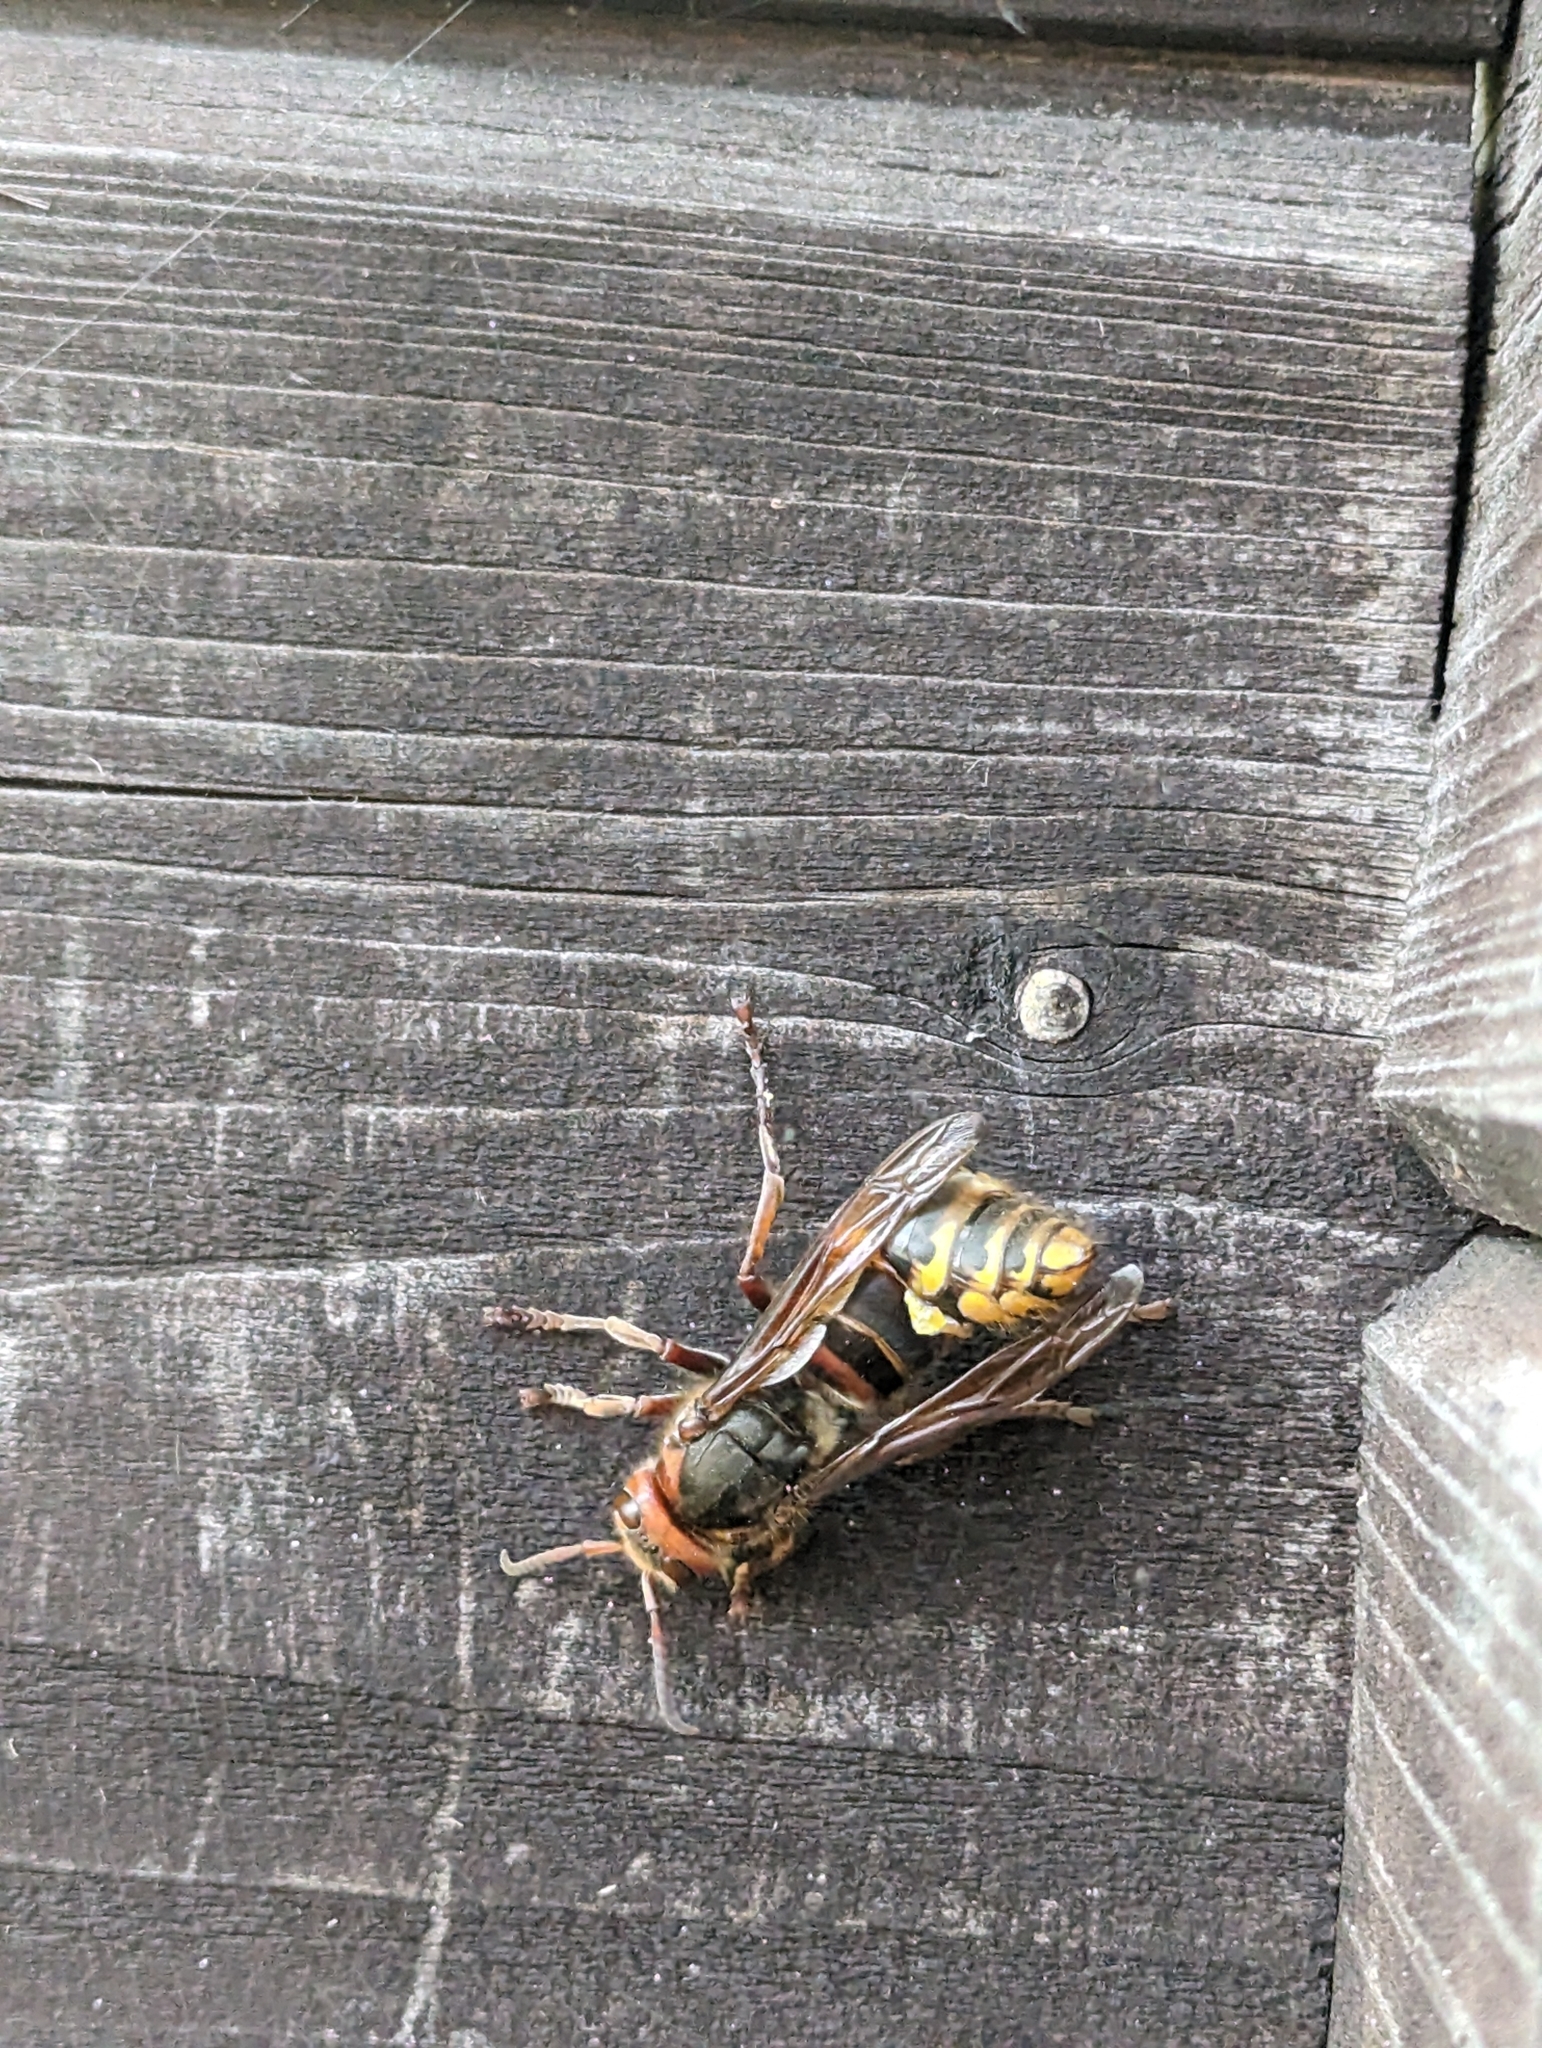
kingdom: Animalia
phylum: Arthropoda
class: Insecta
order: Hymenoptera
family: Vespidae
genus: Vespa
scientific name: Vespa crabro
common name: Hornet
